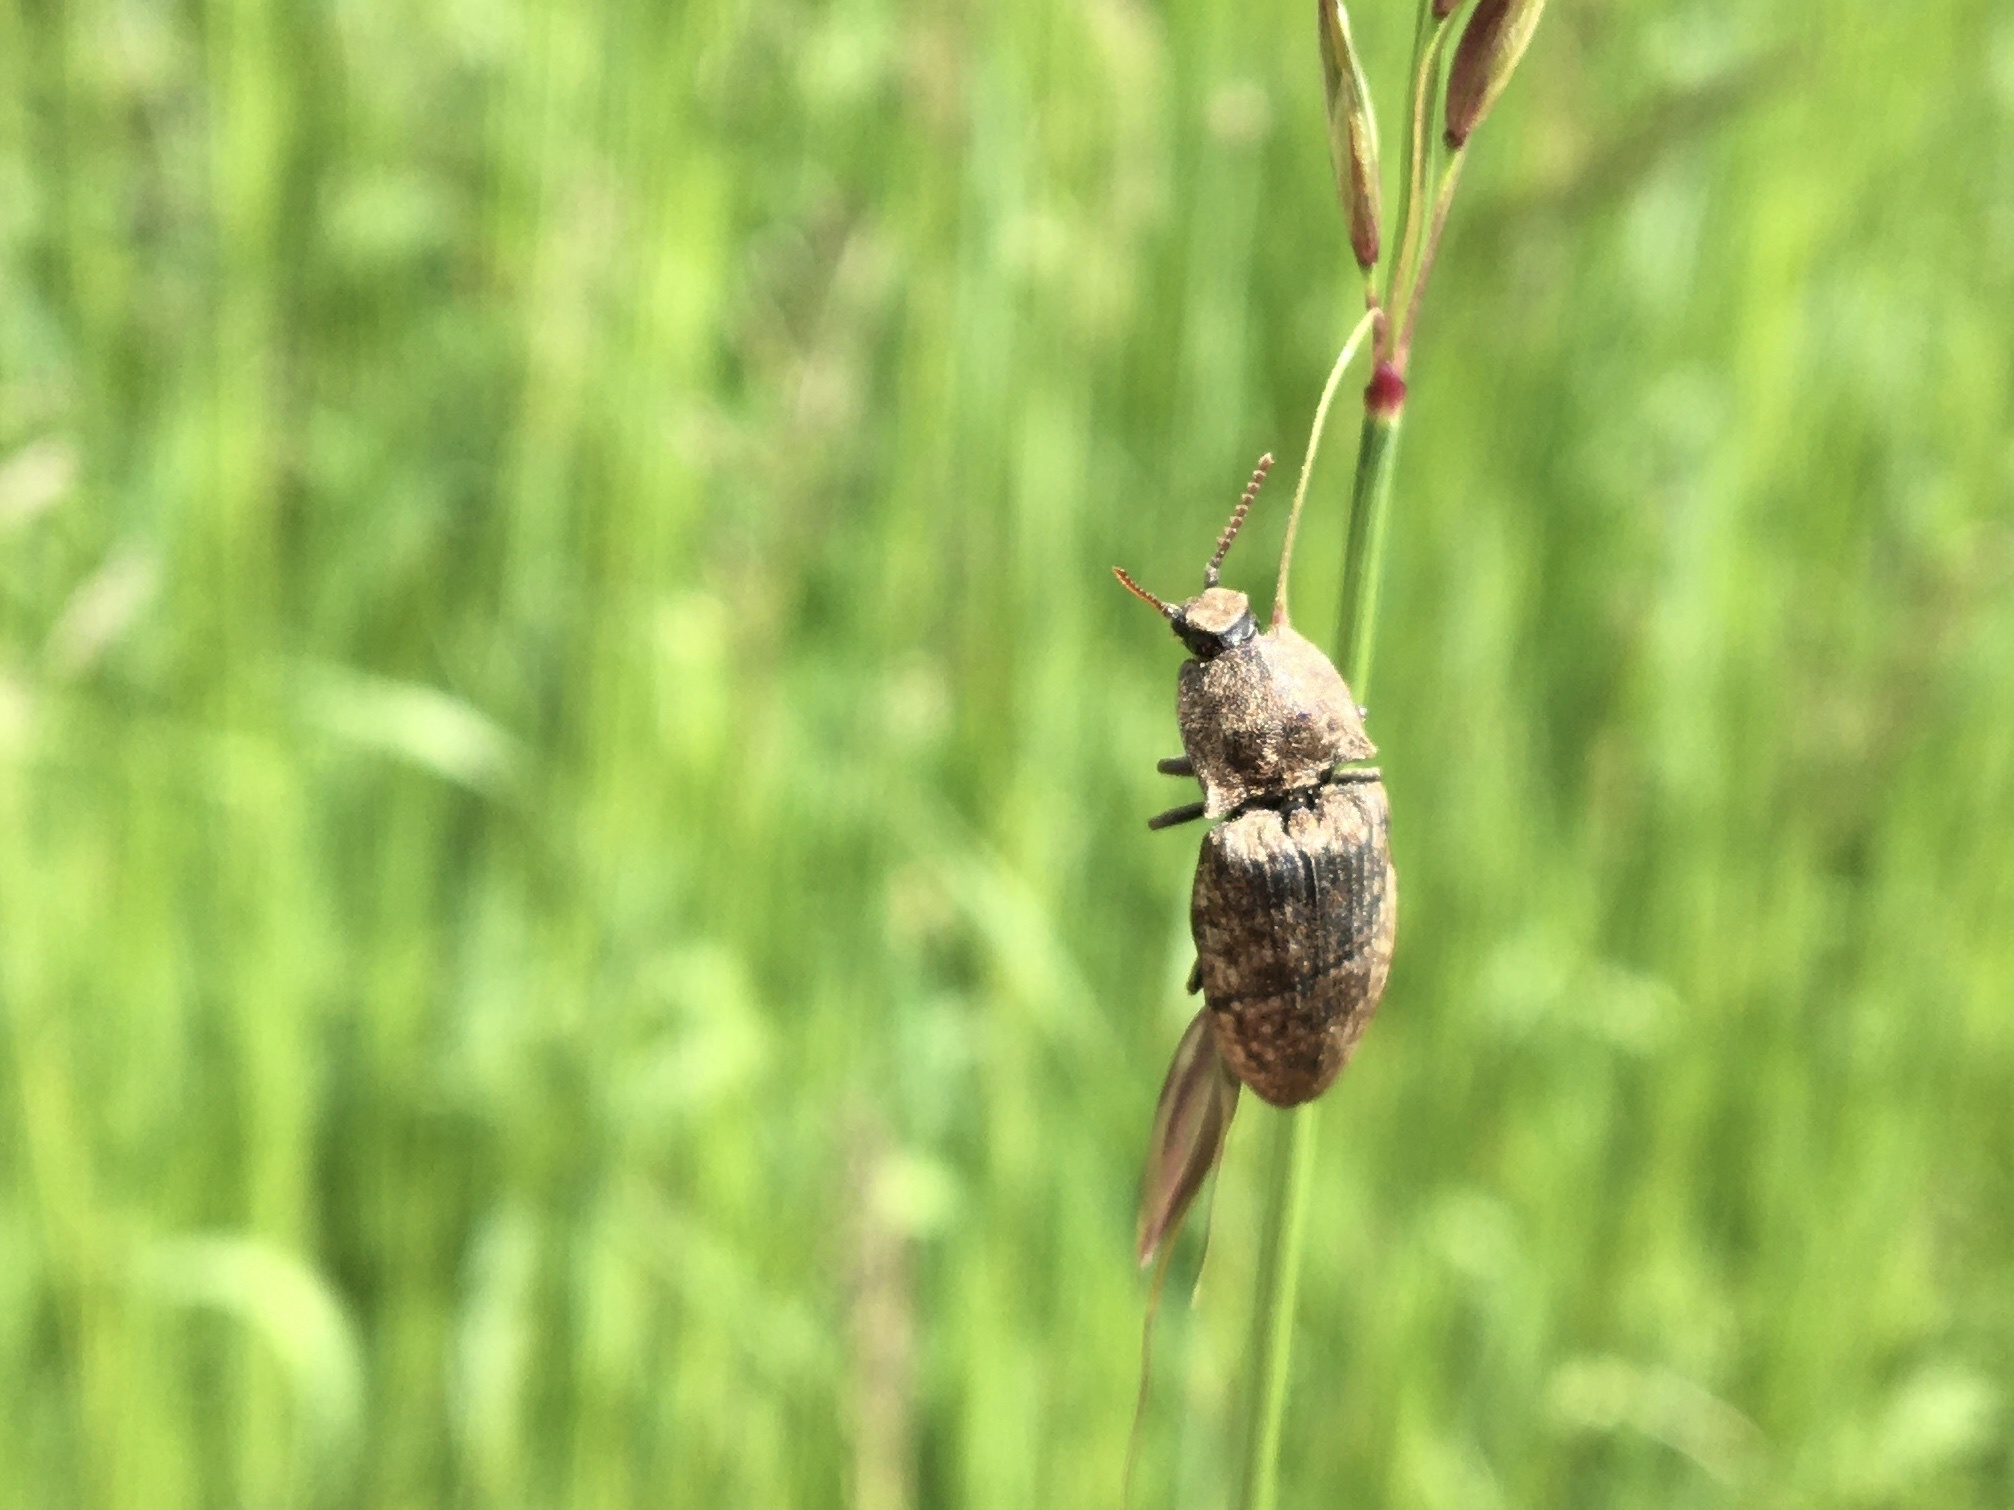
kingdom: Animalia
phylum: Arthropoda
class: Insecta
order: Coleoptera
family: Elateridae
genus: Agrypnus
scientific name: Agrypnus murinus
